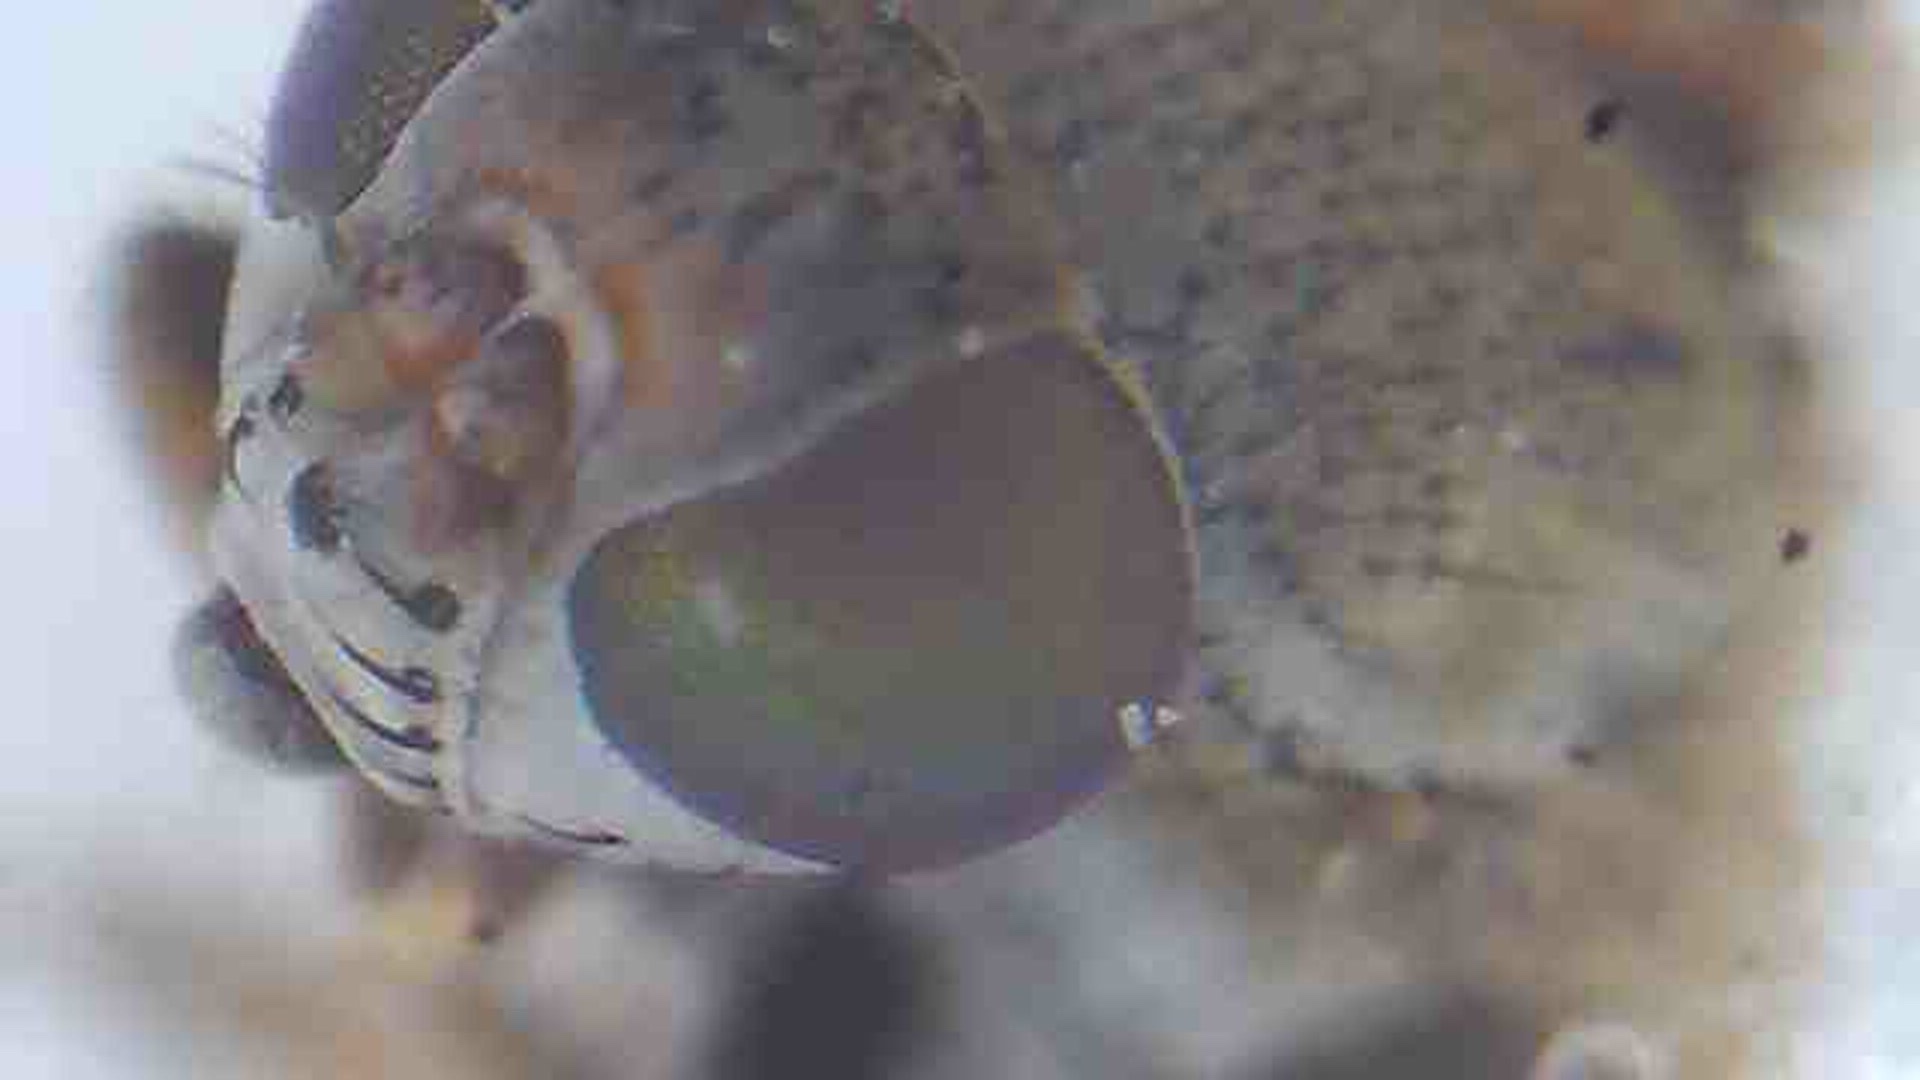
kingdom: Animalia
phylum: Arthropoda
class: Insecta
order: Diptera
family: Ephydridae
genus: Hecamede
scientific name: Hecamede granifera
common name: Shore fly
